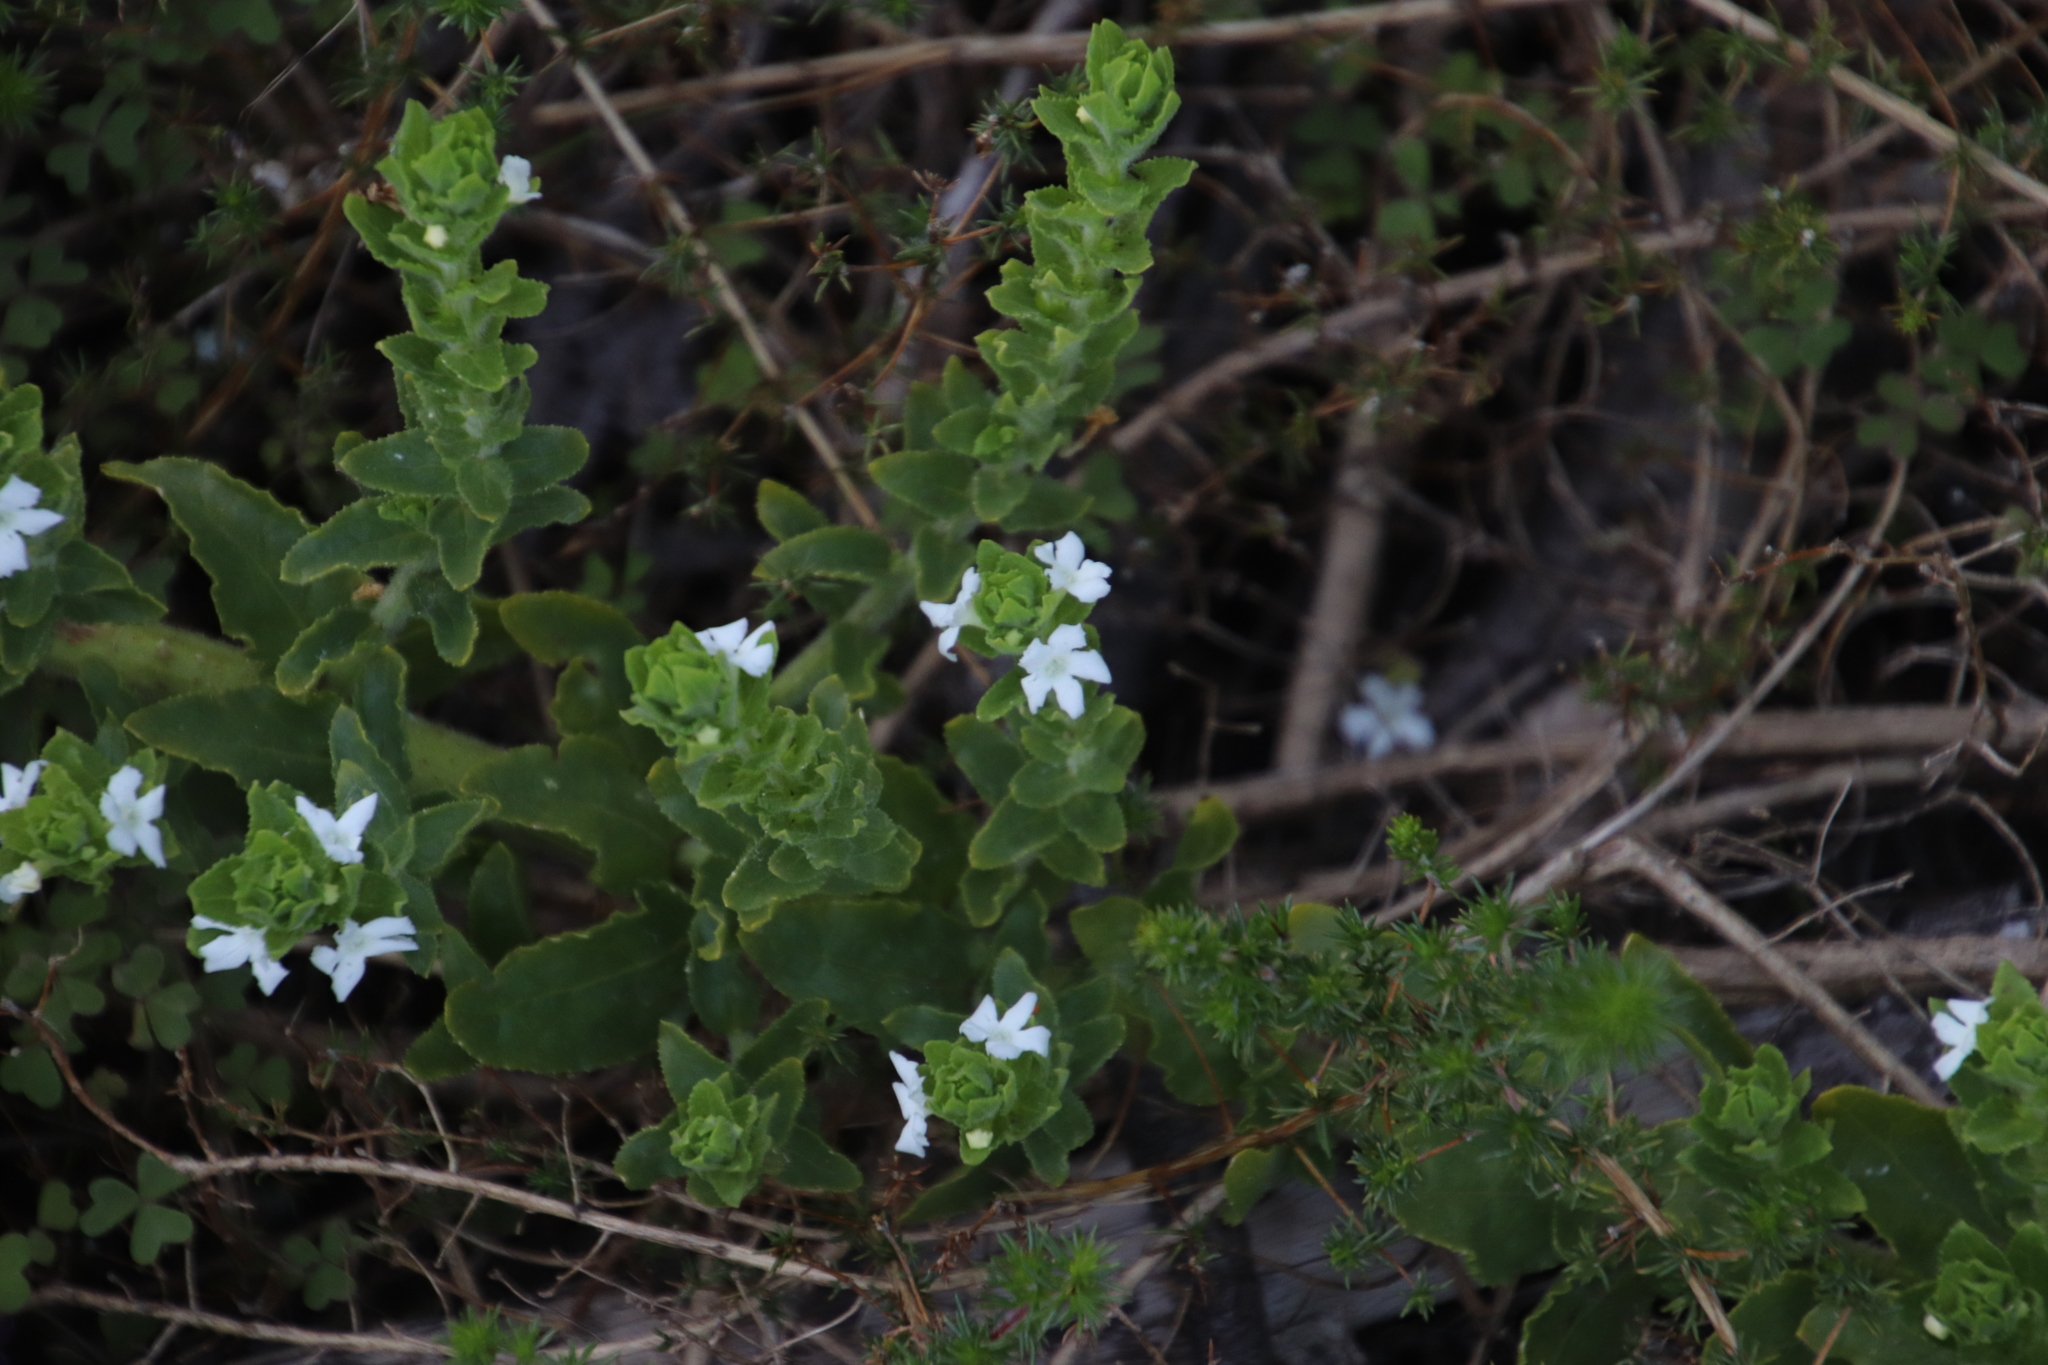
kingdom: Plantae
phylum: Tracheophyta
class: Magnoliopsida
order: Lamiales
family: Scrophulariaceae
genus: Oftia
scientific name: Oftia africana
